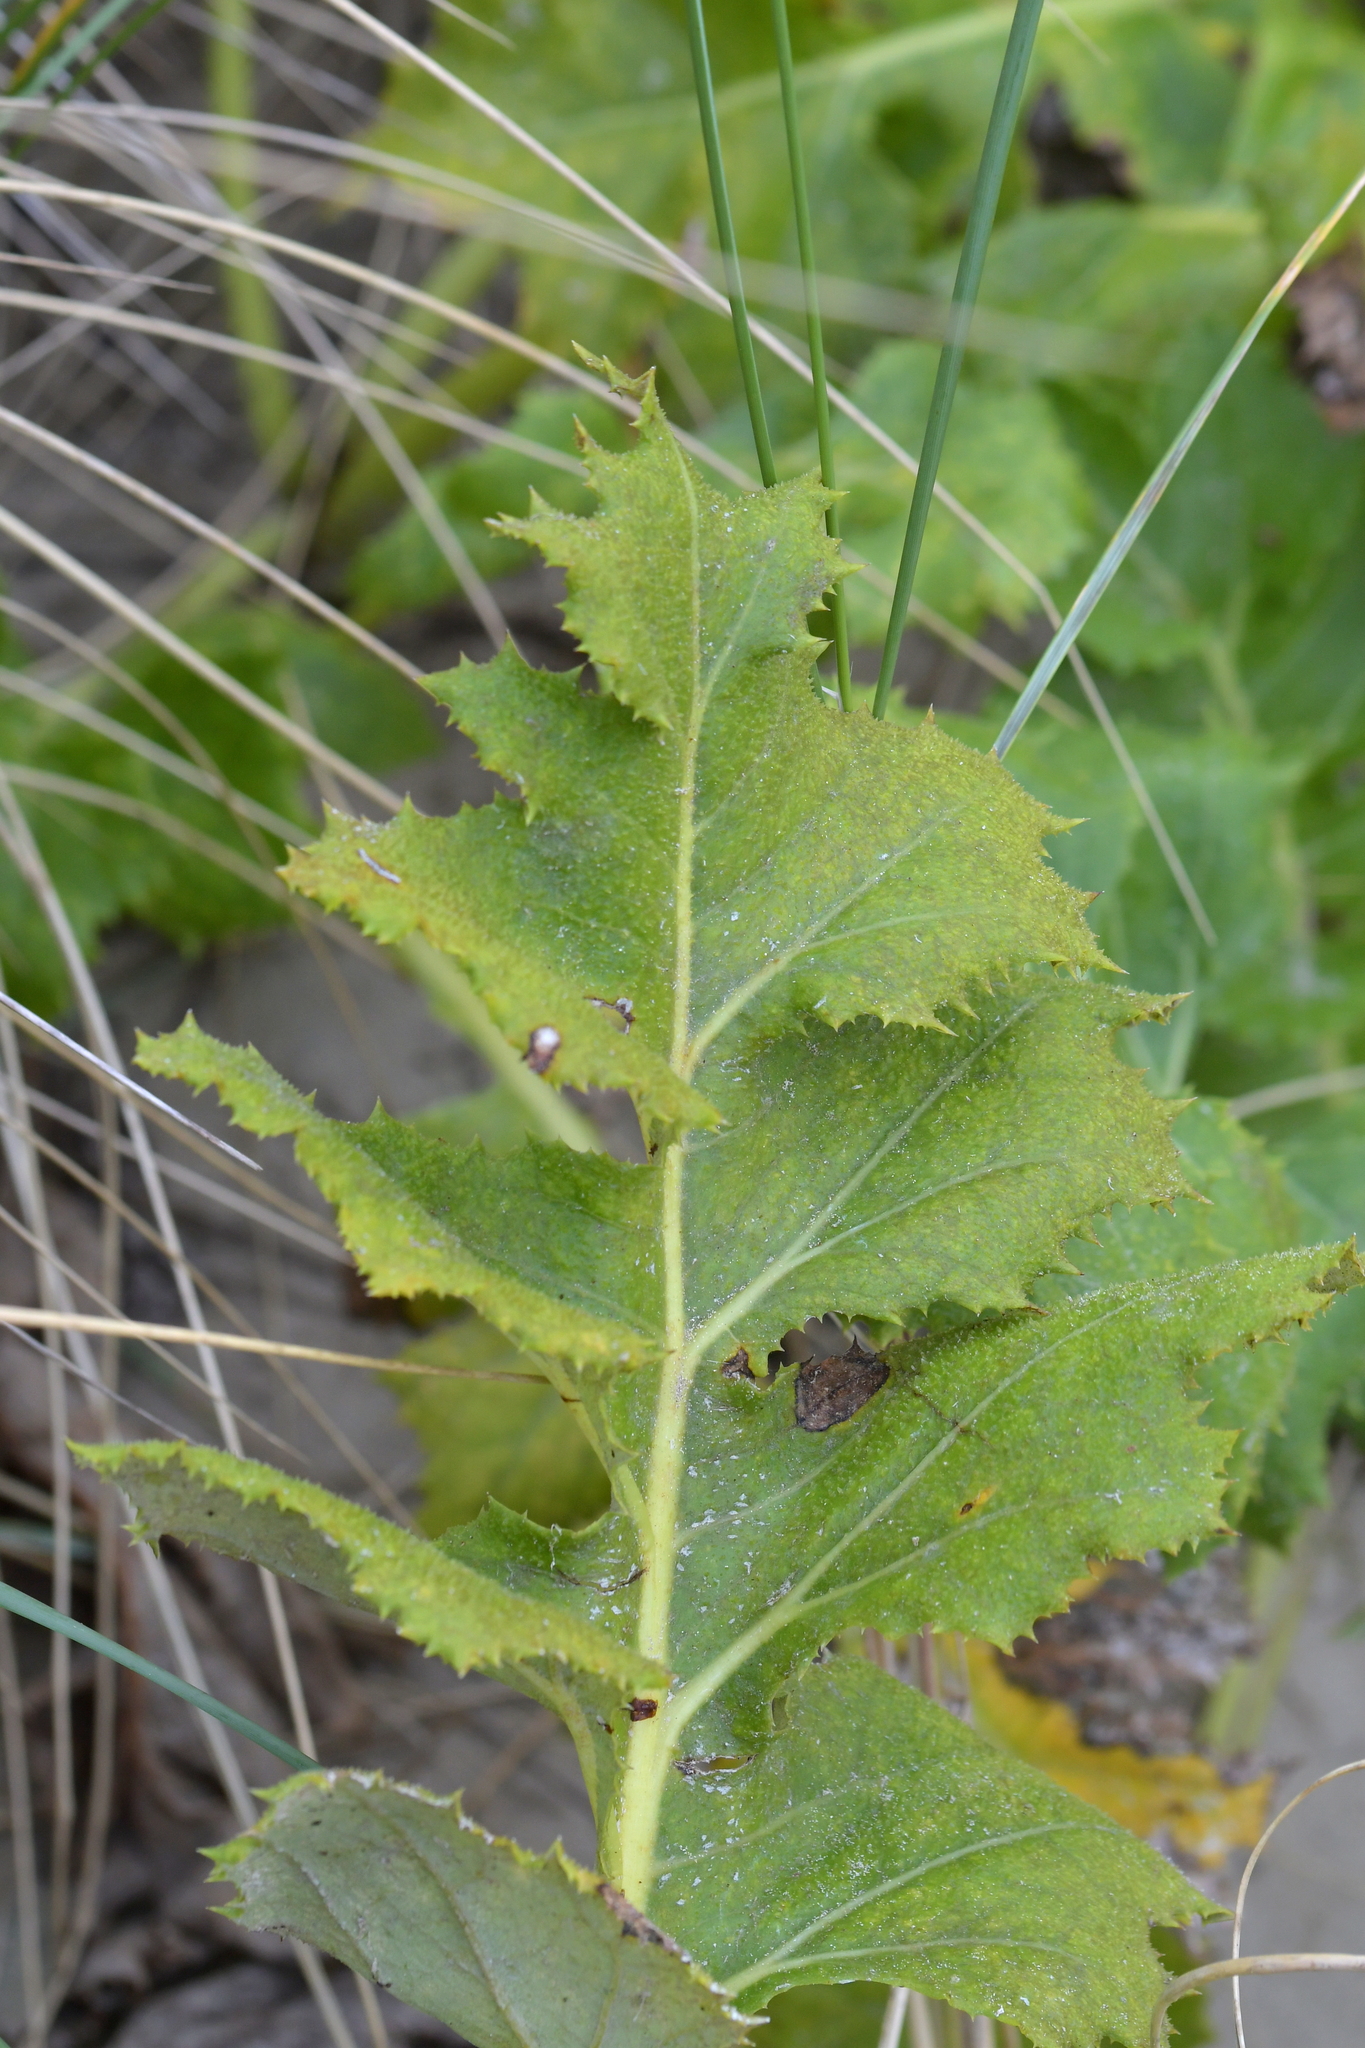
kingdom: Plantae
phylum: Tracheophyta
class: Magnoliopsida
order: Asterales
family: Asteraceae
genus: Sonchus
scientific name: Sonchus grandifolius
